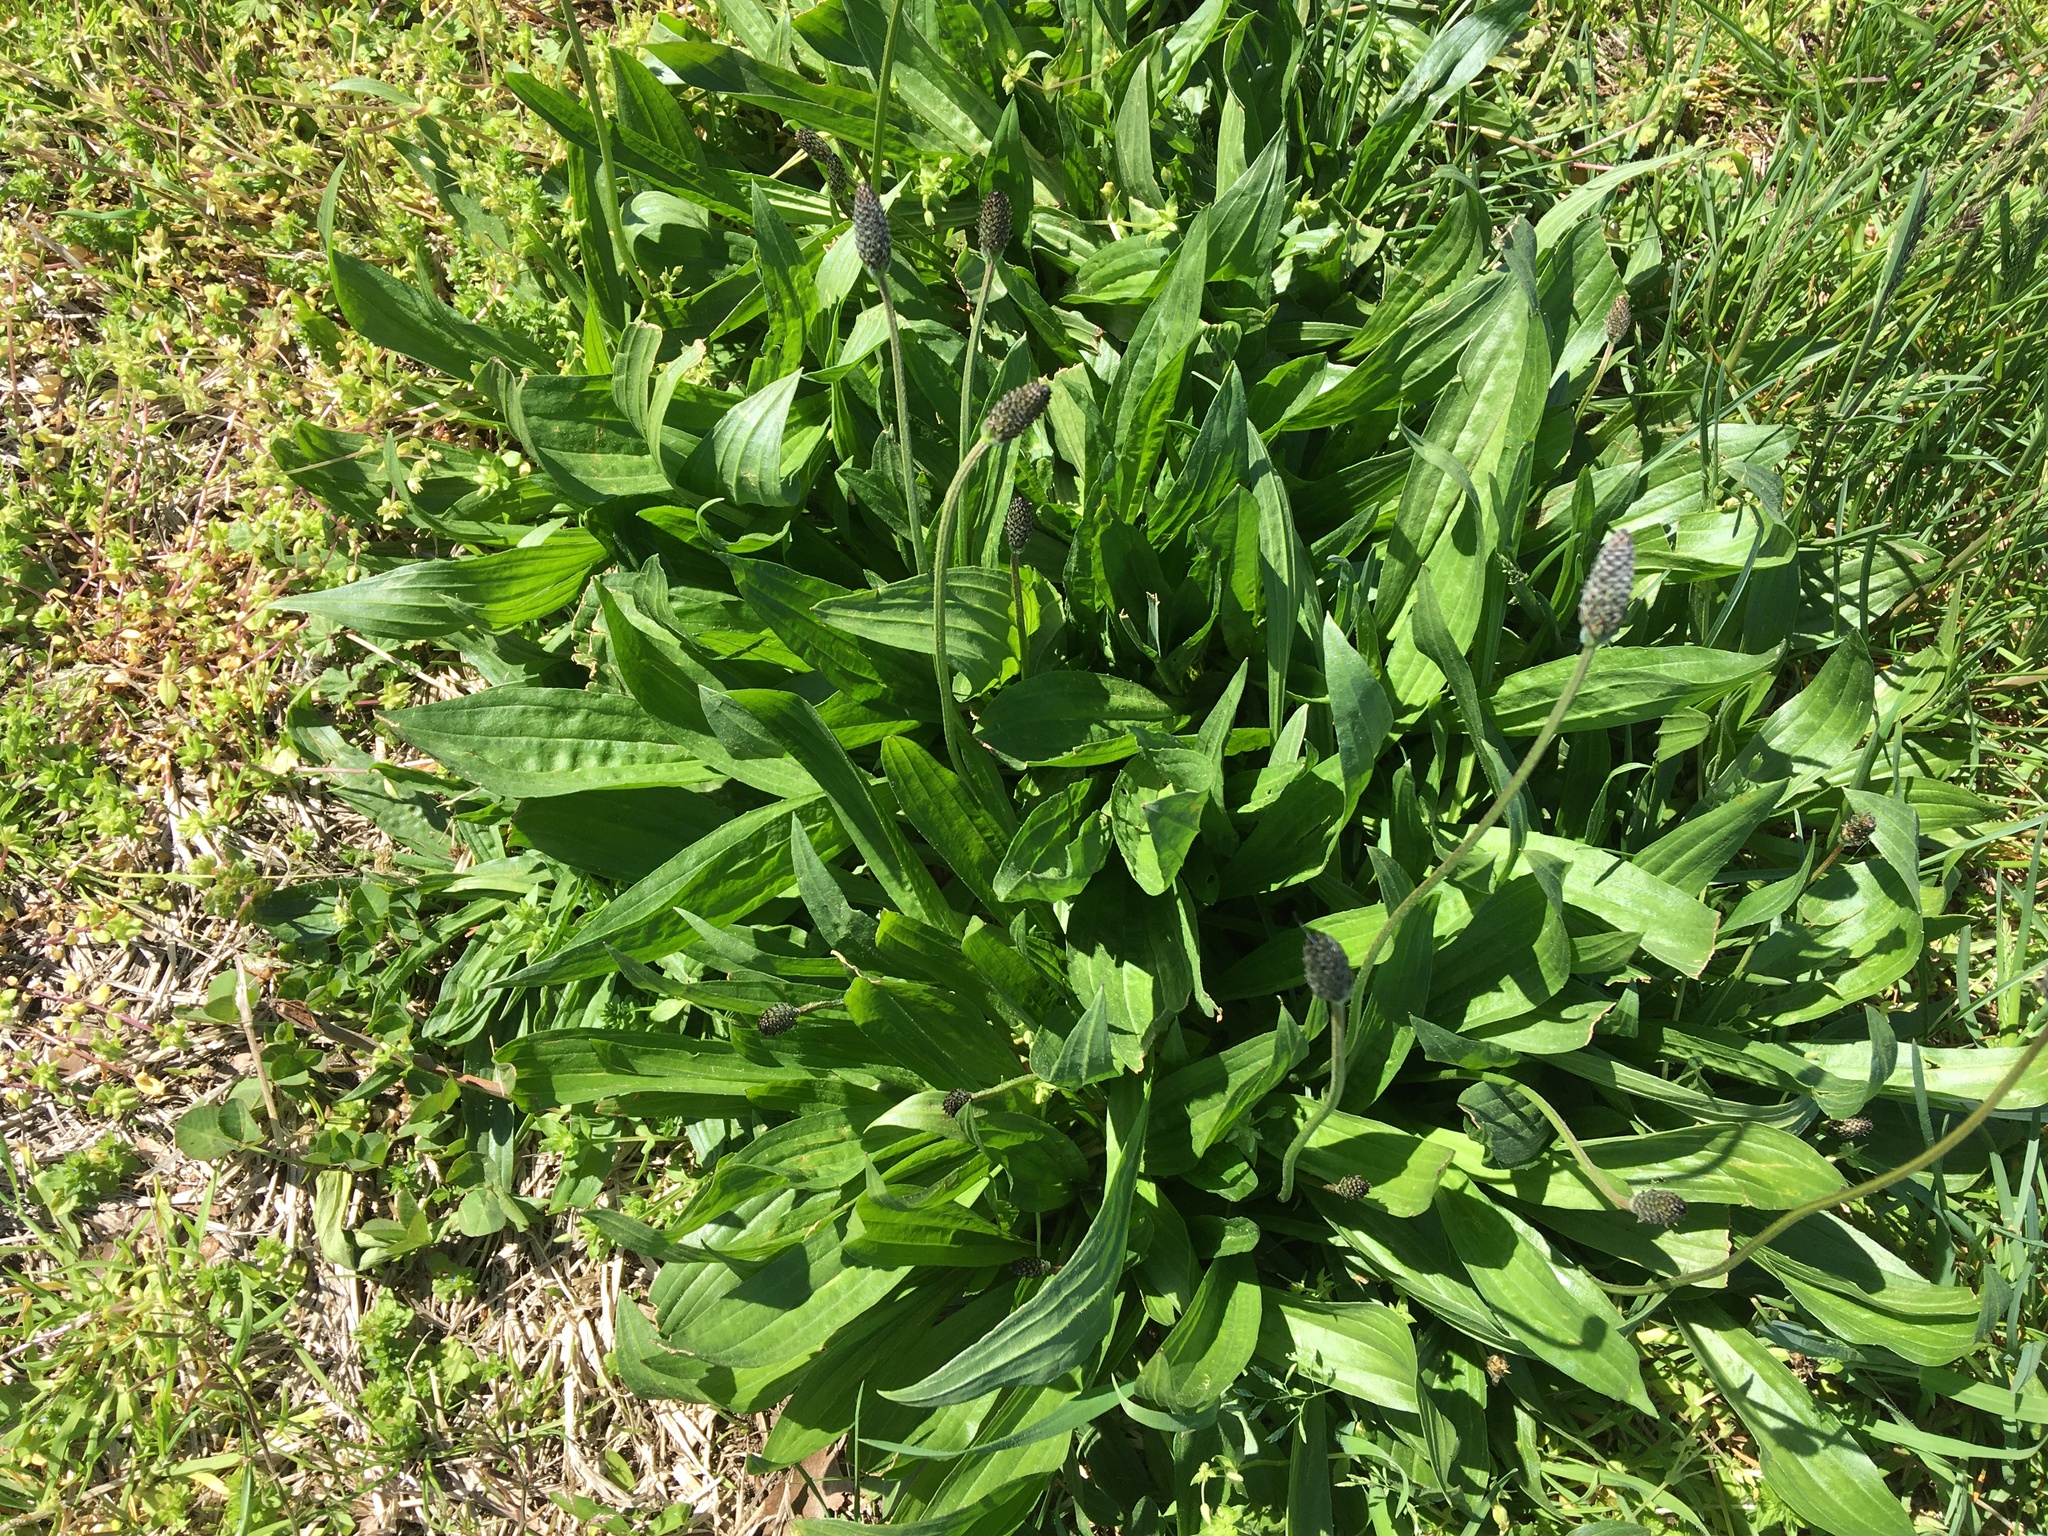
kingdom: Plantae
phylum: Tracheophyta
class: Magnoliopsida
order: Lamiales
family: Plantaginaceae
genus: Plantago
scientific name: Plantago lanceolata
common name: Ribwort plantain
